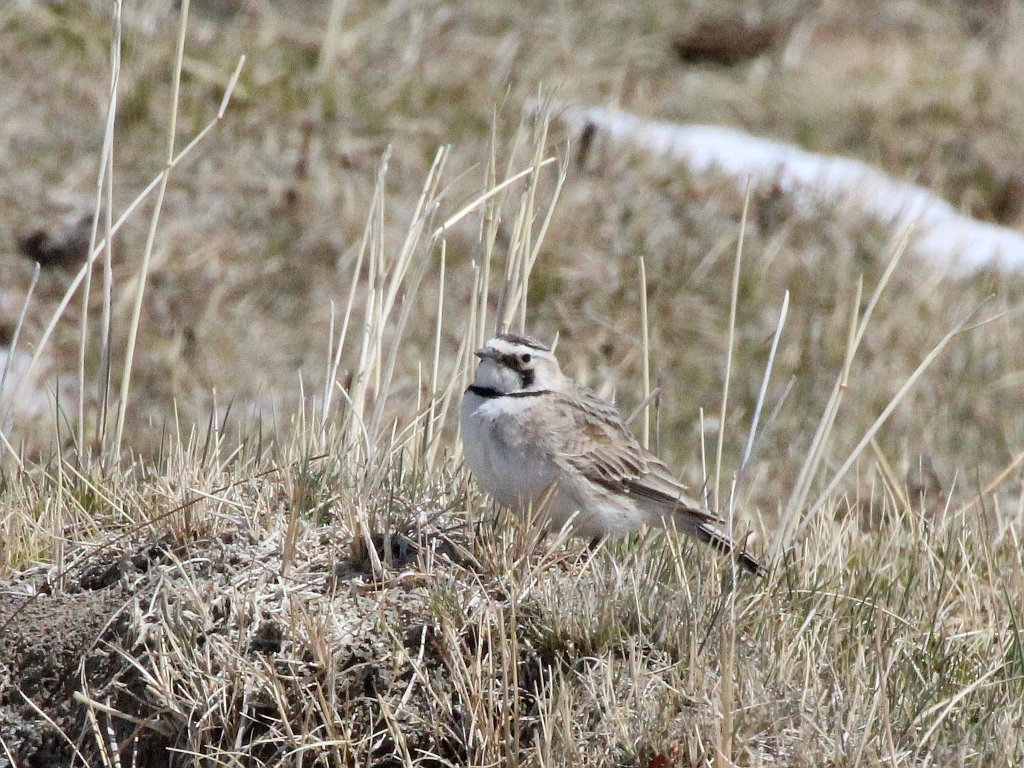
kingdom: Animalia
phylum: Chordata
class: Aves
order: Passeriformes
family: Alaudidae
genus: Eremophila
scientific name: Eremophila alpestris
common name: Horned lark
